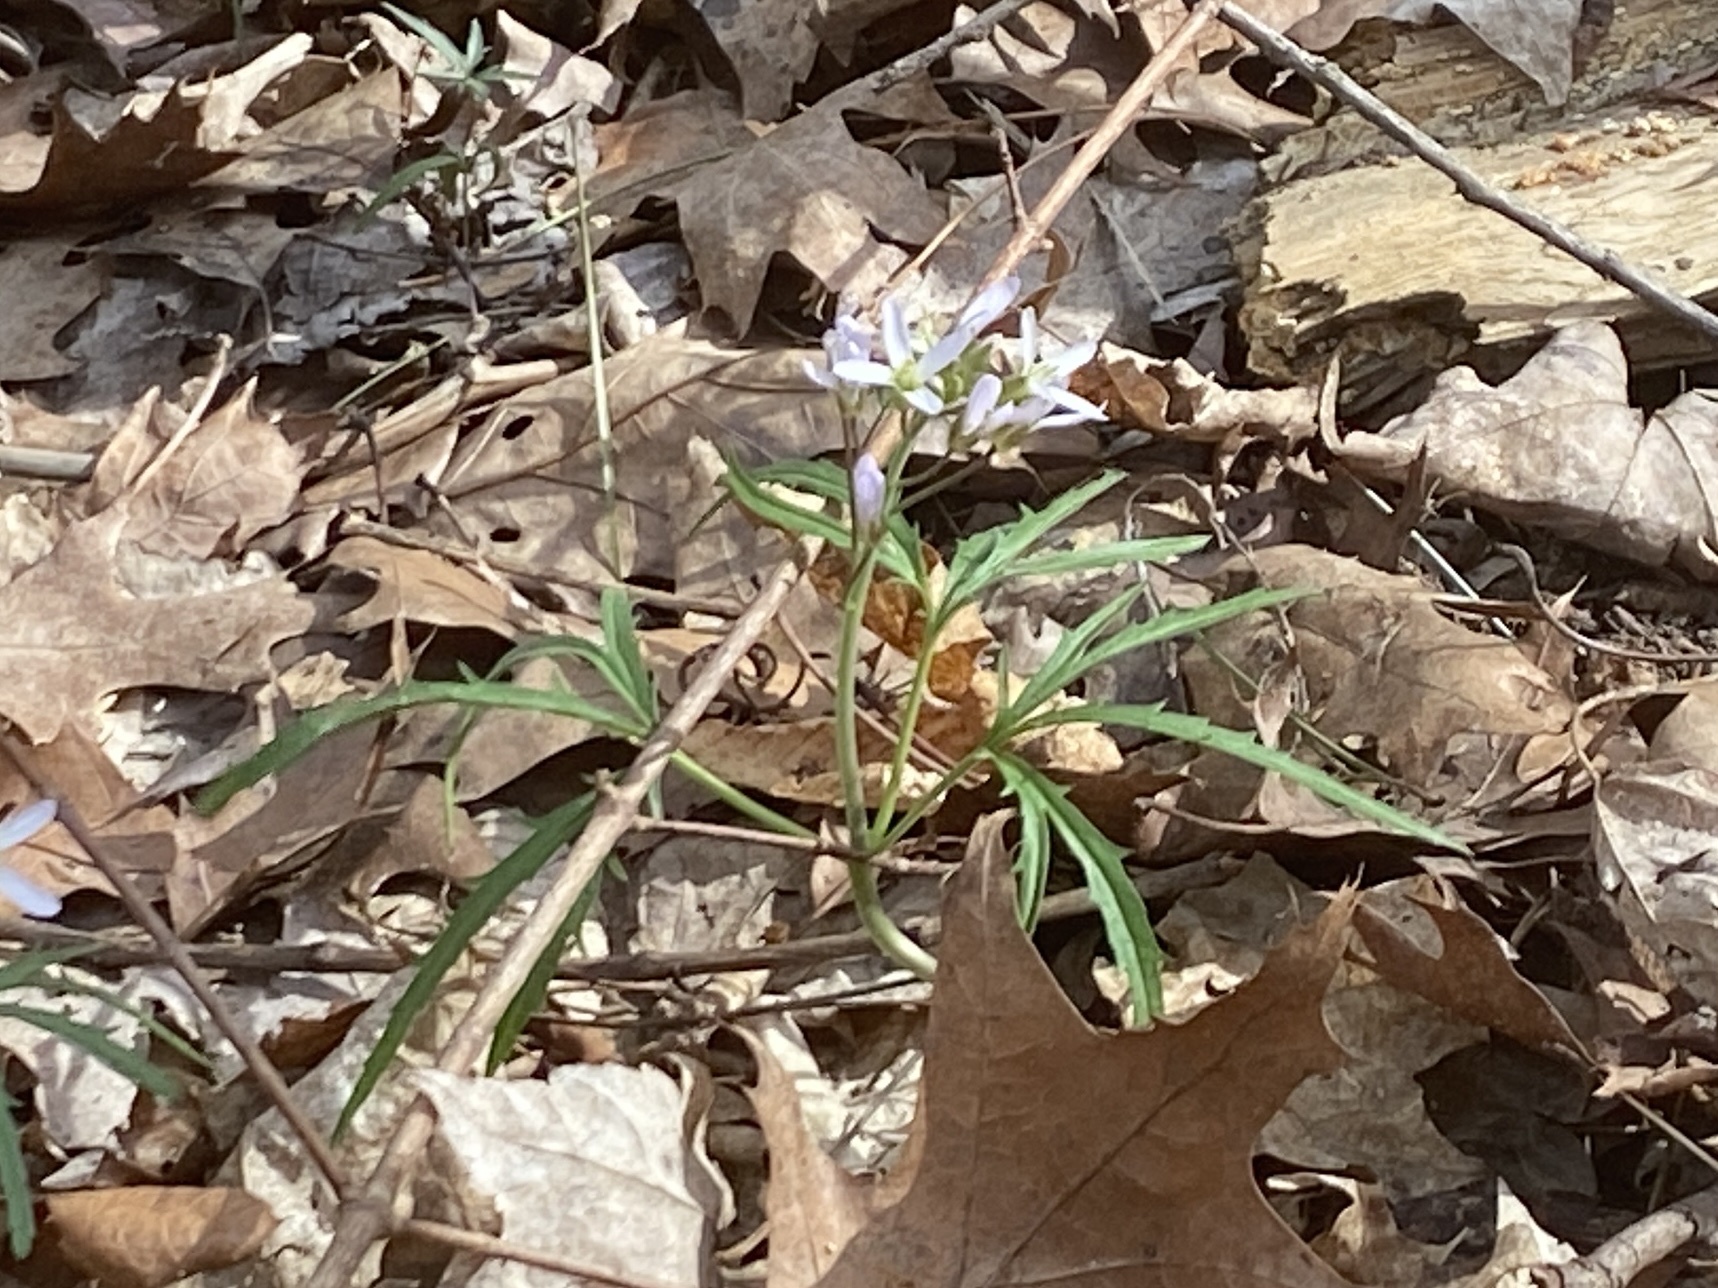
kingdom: Plantae
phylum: Tracheophyta
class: Magnoliopsida
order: Brassicales
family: Brassicaceae
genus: Cardamine
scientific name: Cardamine concatenata
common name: Cut-leaf toothcup
